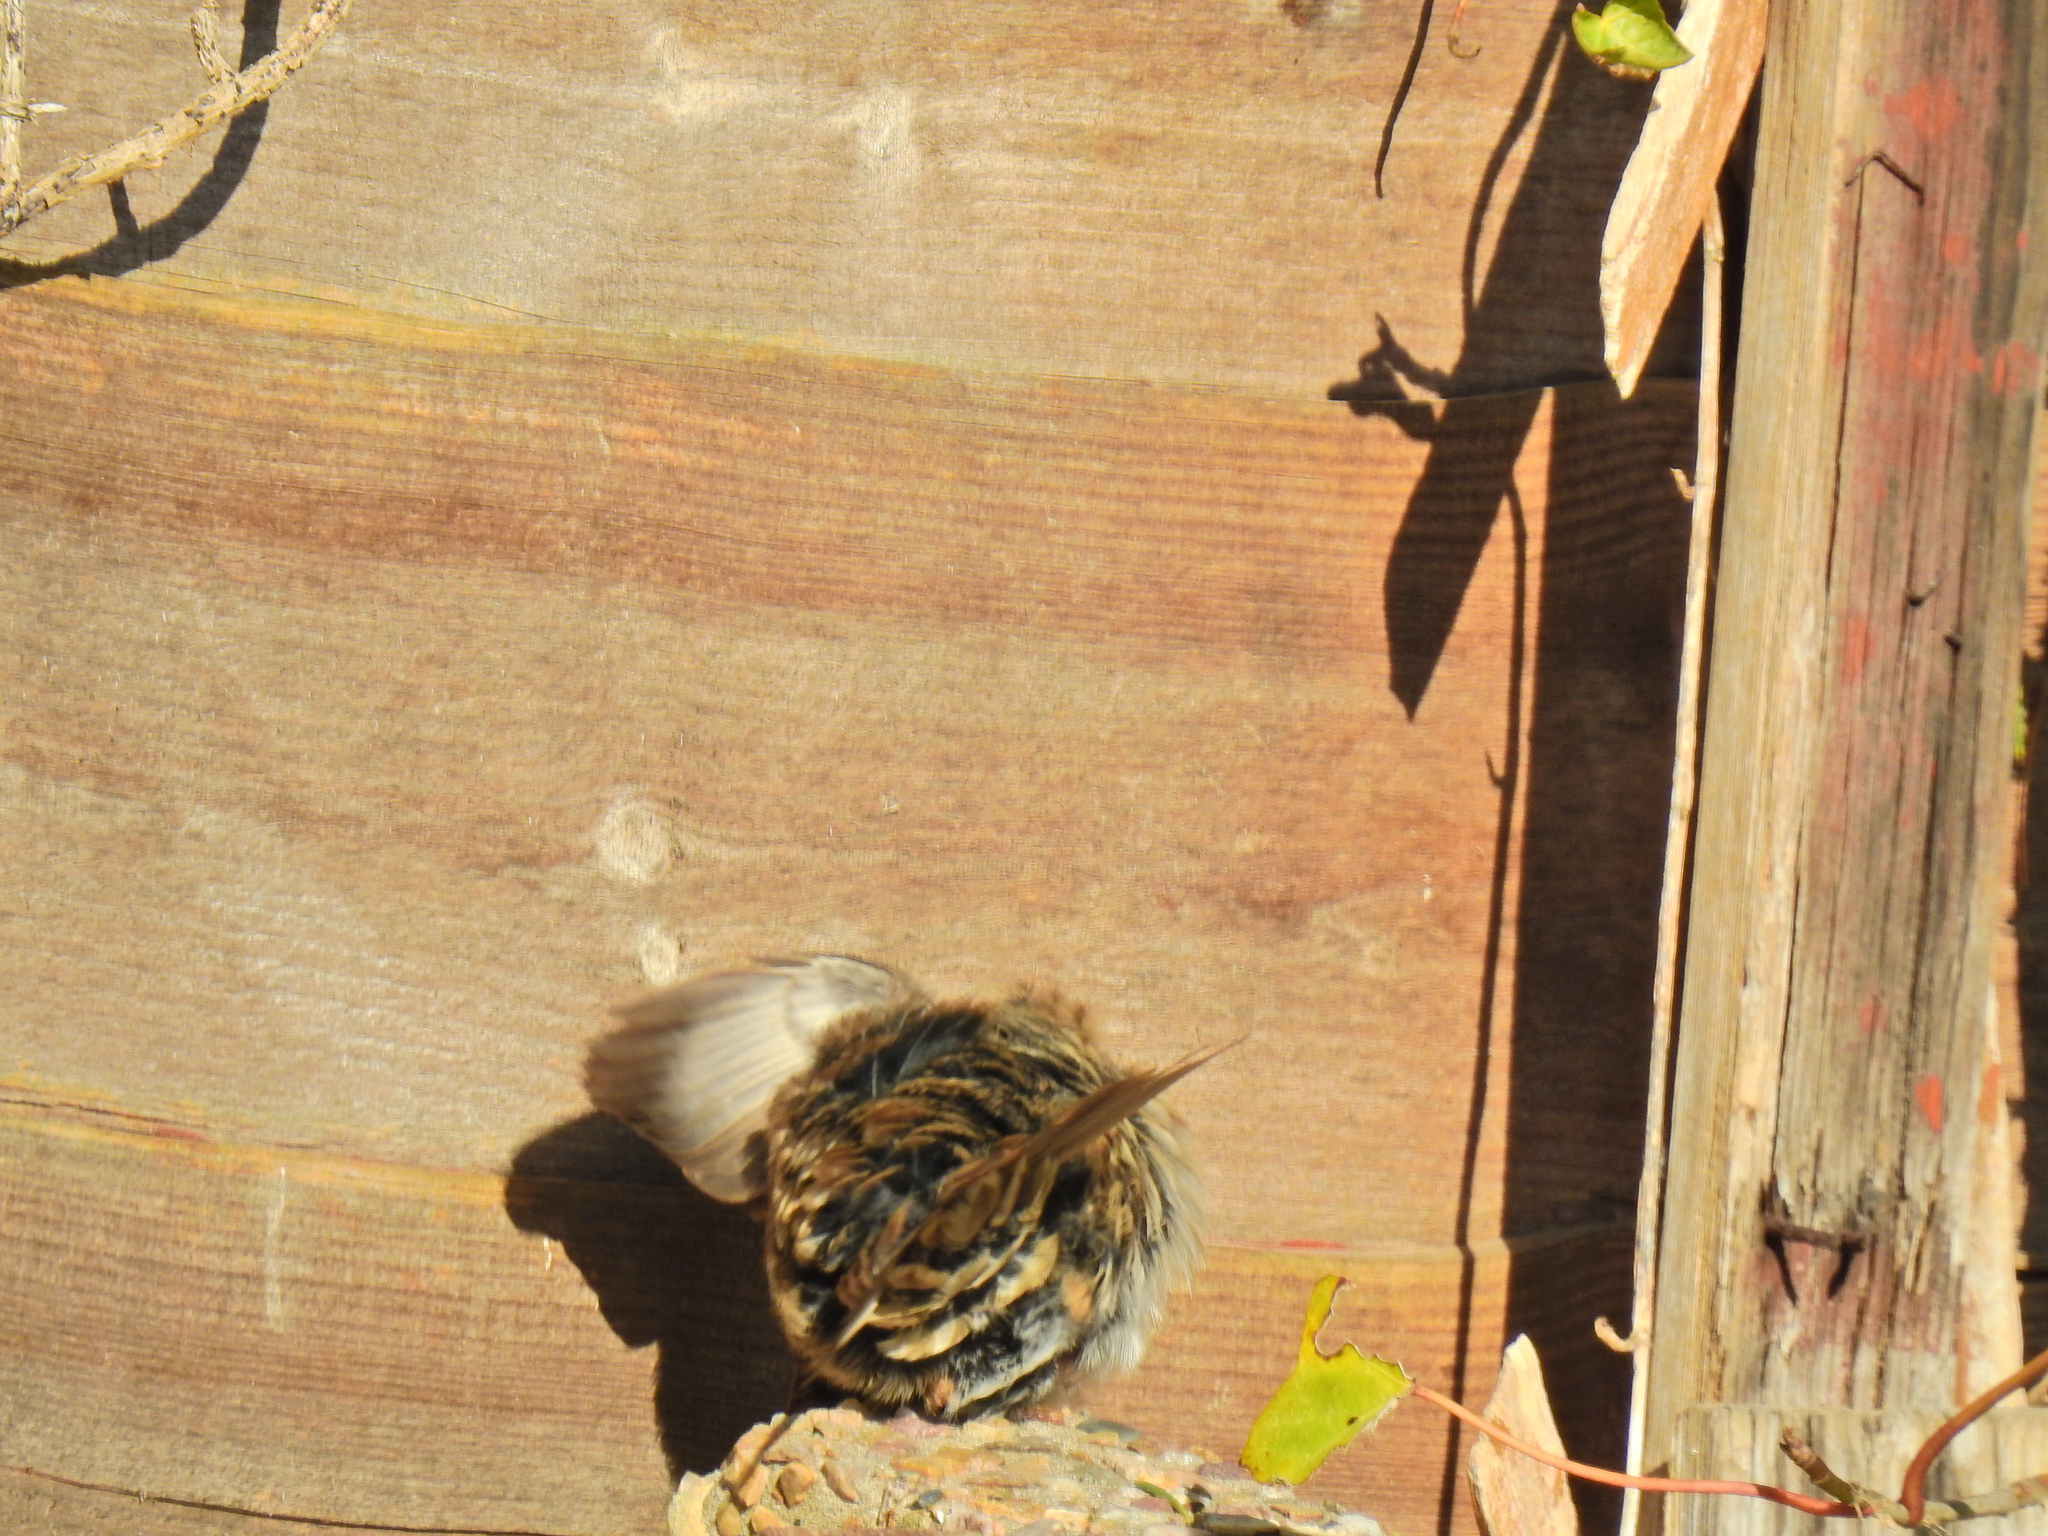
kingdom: Animalia
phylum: Chordata
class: Aves
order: Passeriformes
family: Prunellidae
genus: Prunella
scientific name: Prunella modularis
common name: Dunnock
